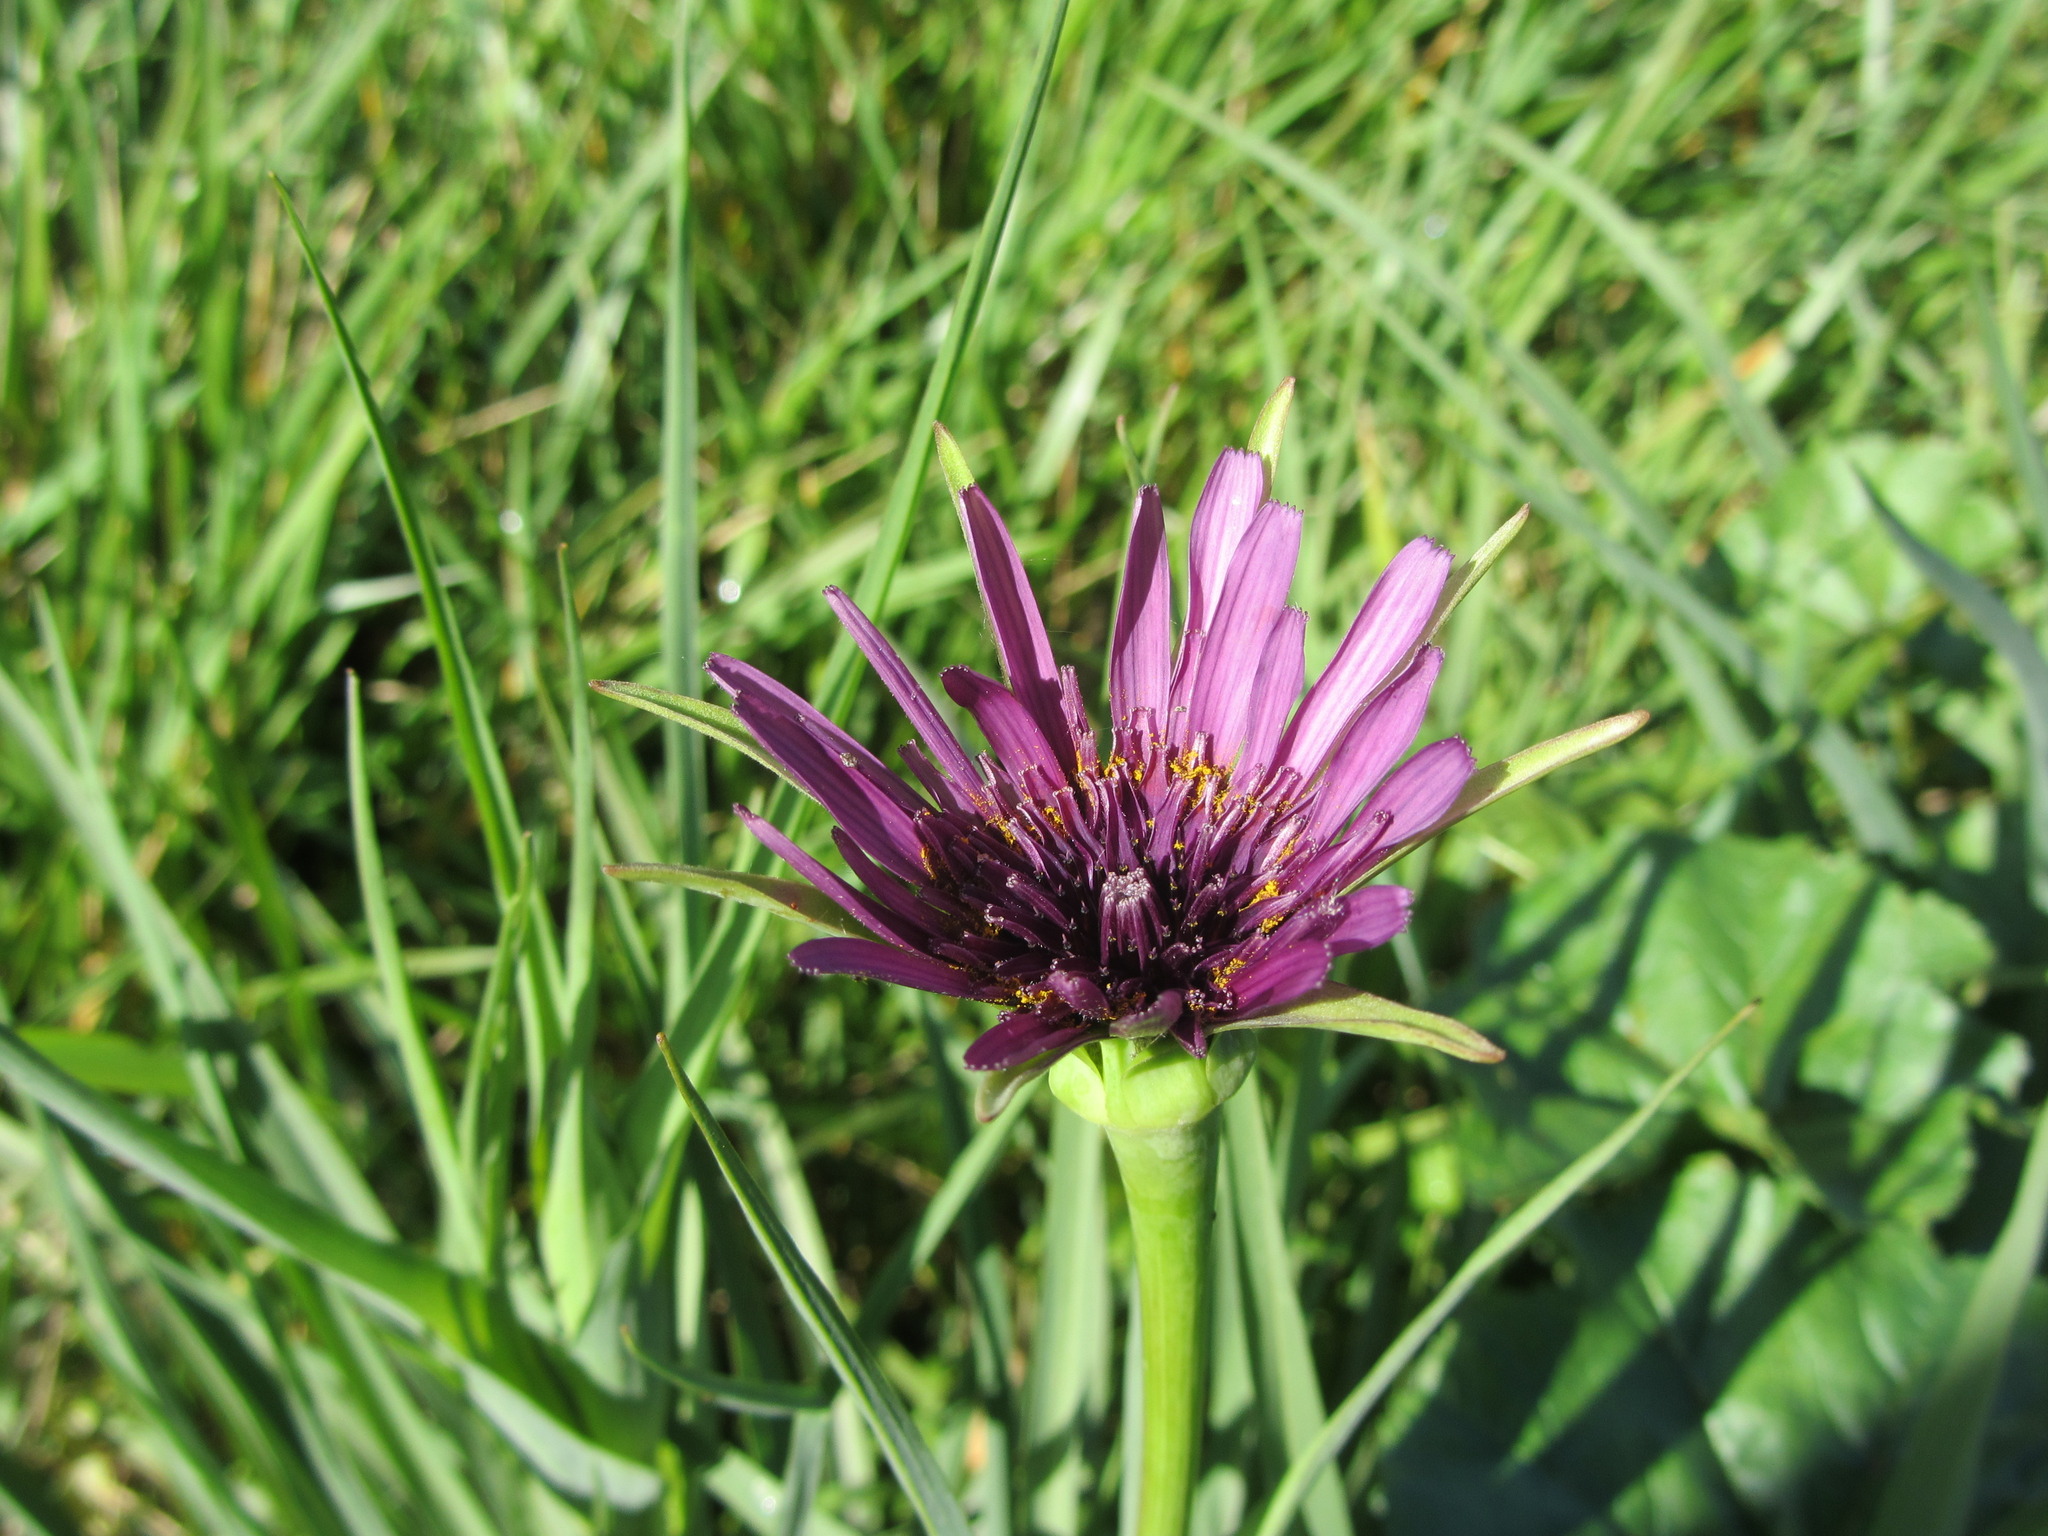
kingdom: Plantae
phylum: Tracheophyta
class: Magnoliopsida
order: Asterales
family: Asteraceae
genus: Tragopogon
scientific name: Tragopogon porrifolius
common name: Salsify
